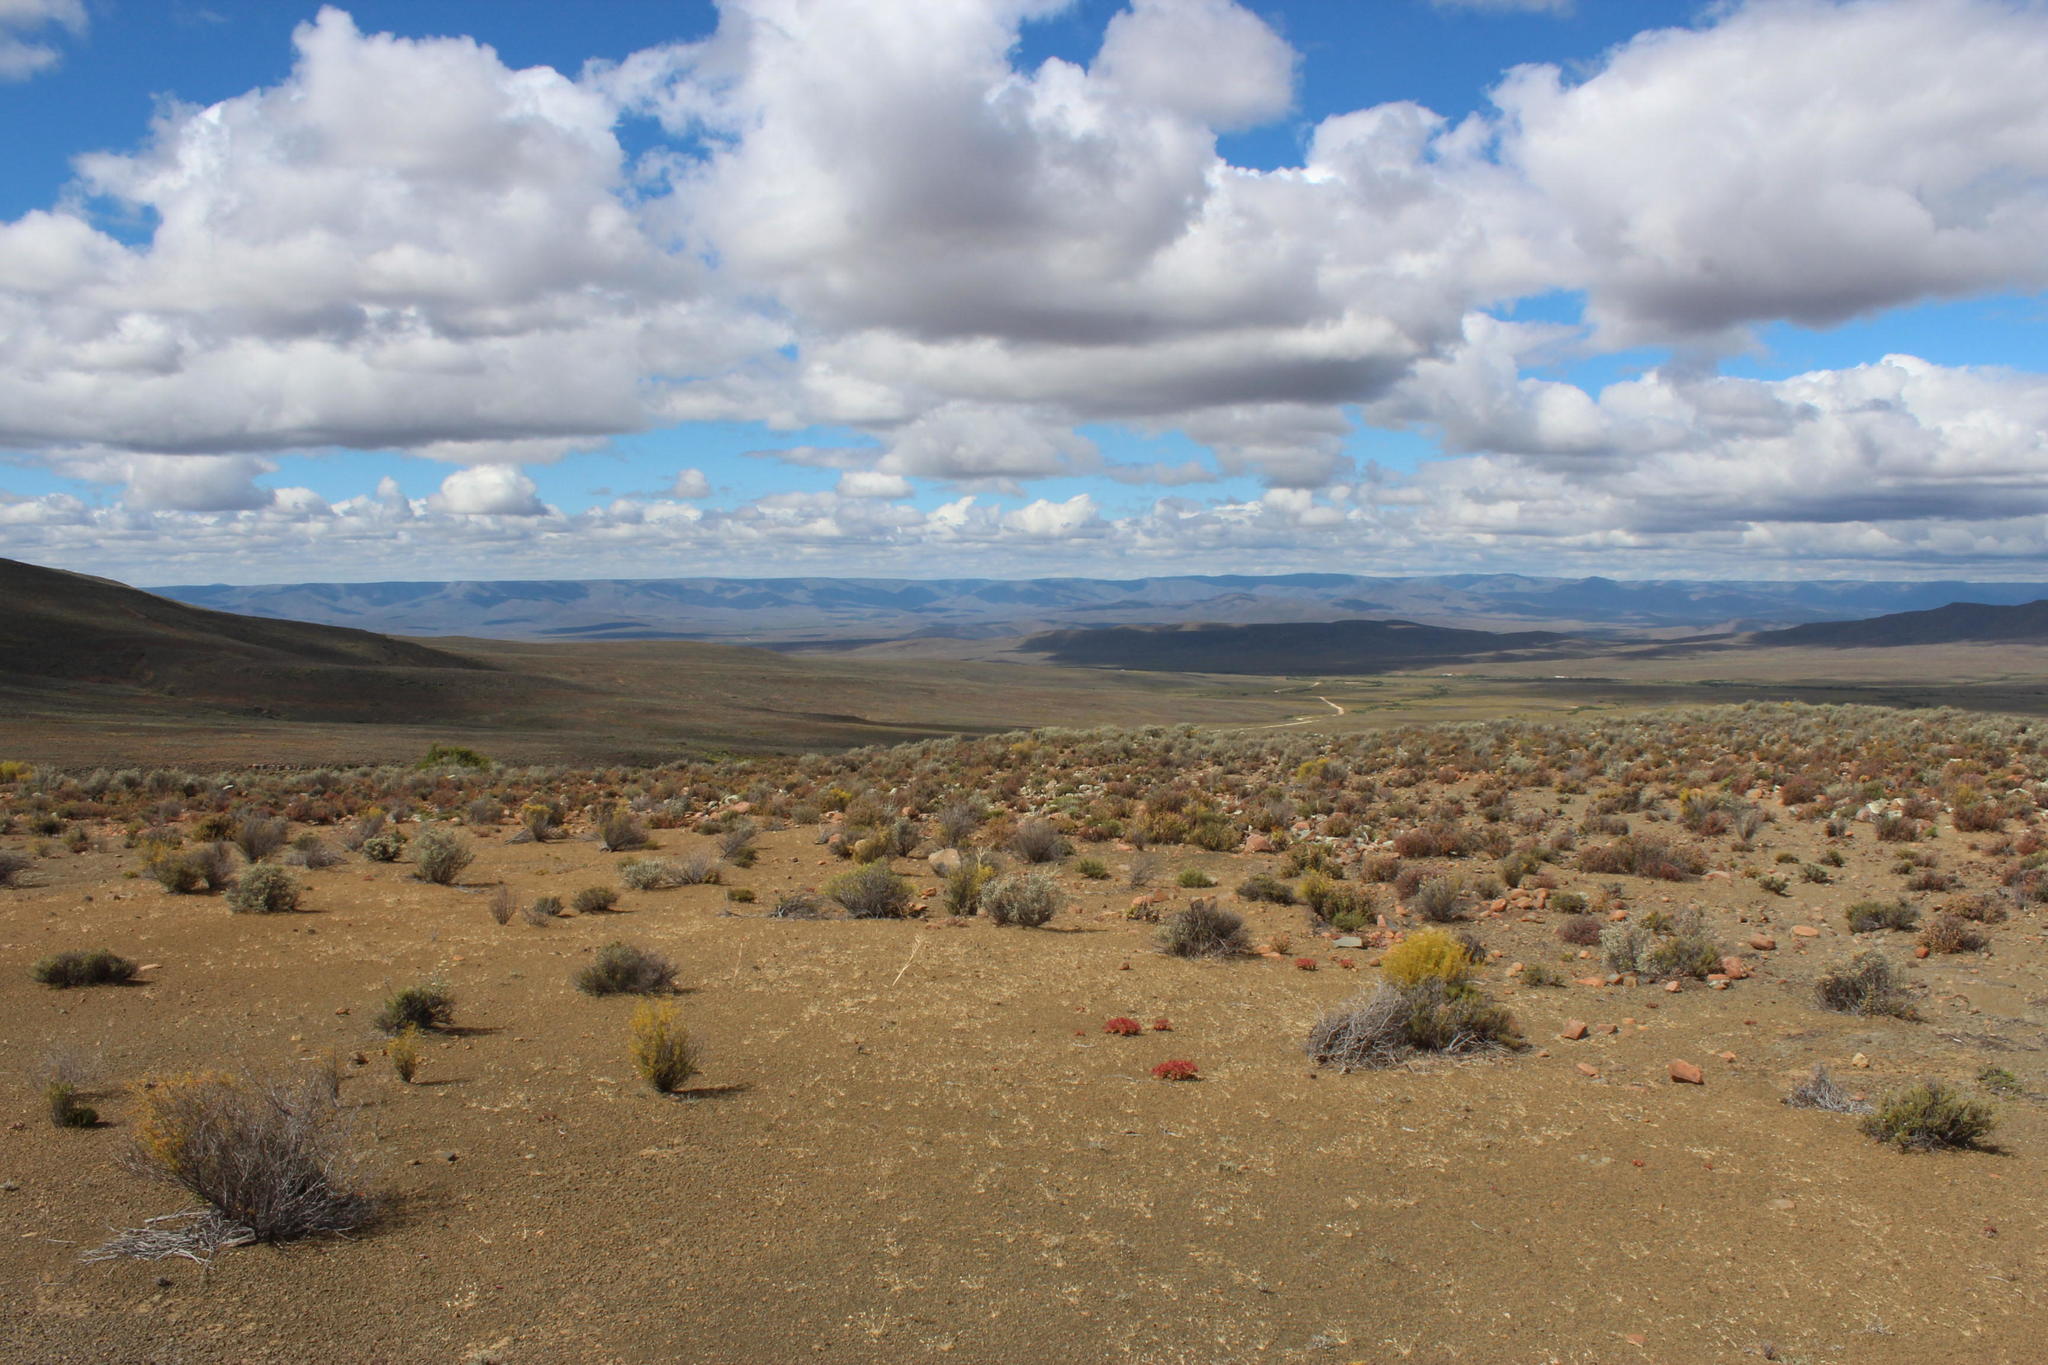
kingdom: Plantae
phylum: Tracheophyta
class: Magnoliopsida
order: Saxifragales
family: Crassulaceae
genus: Crassula
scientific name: Crassula deltoidea
